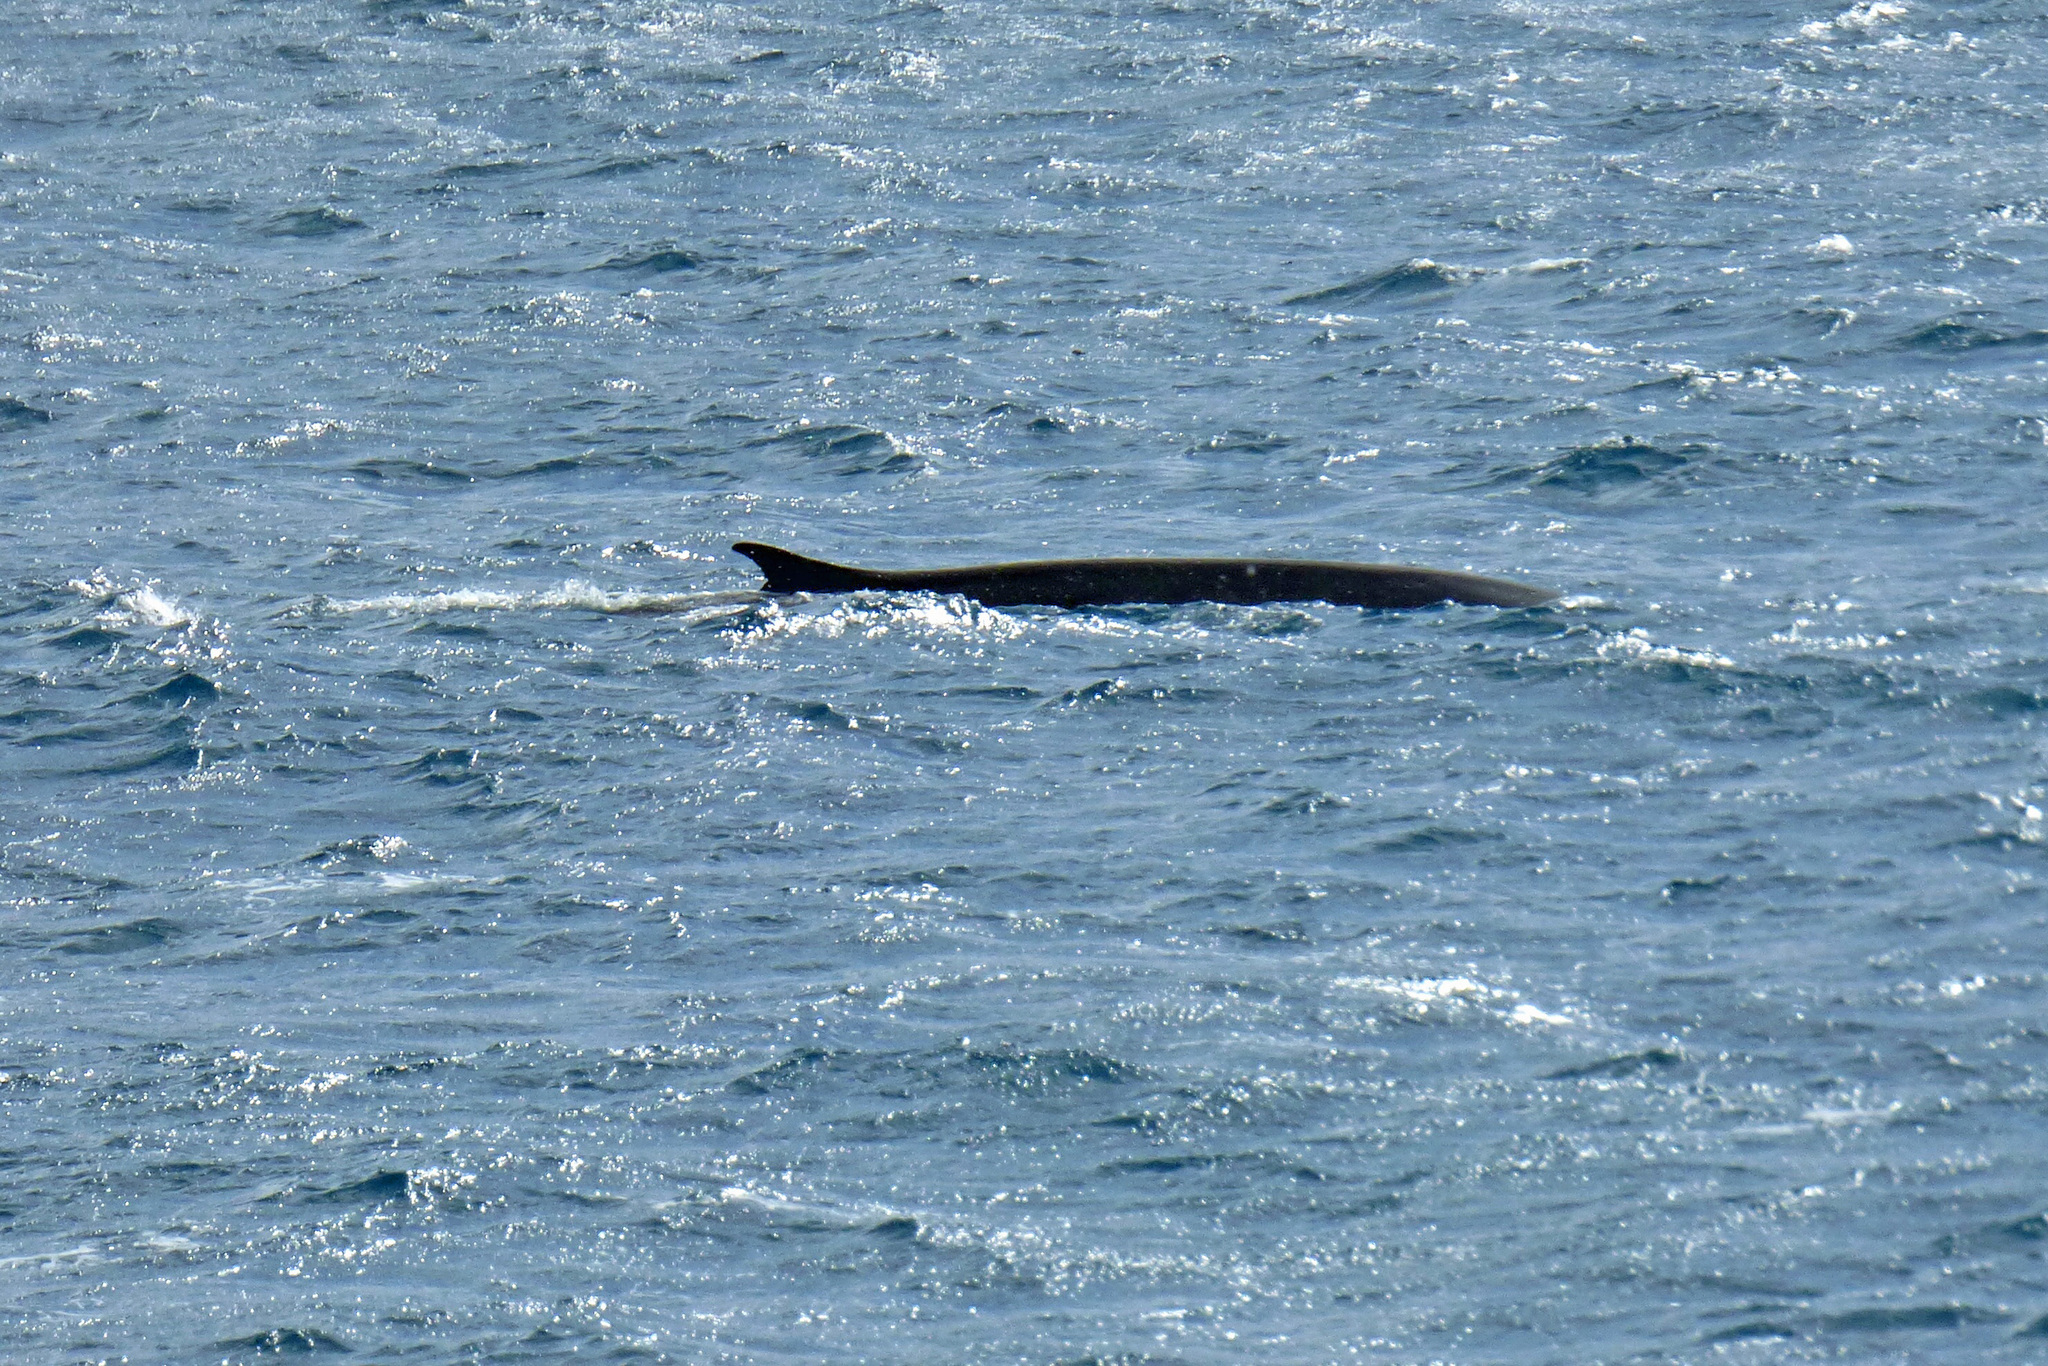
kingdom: Animalia
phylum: Chordata
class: Mammalia
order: Cetacea
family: Balaenopteridae
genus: Balaenoptera
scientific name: Balaenoptera physalus
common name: Fin whale
